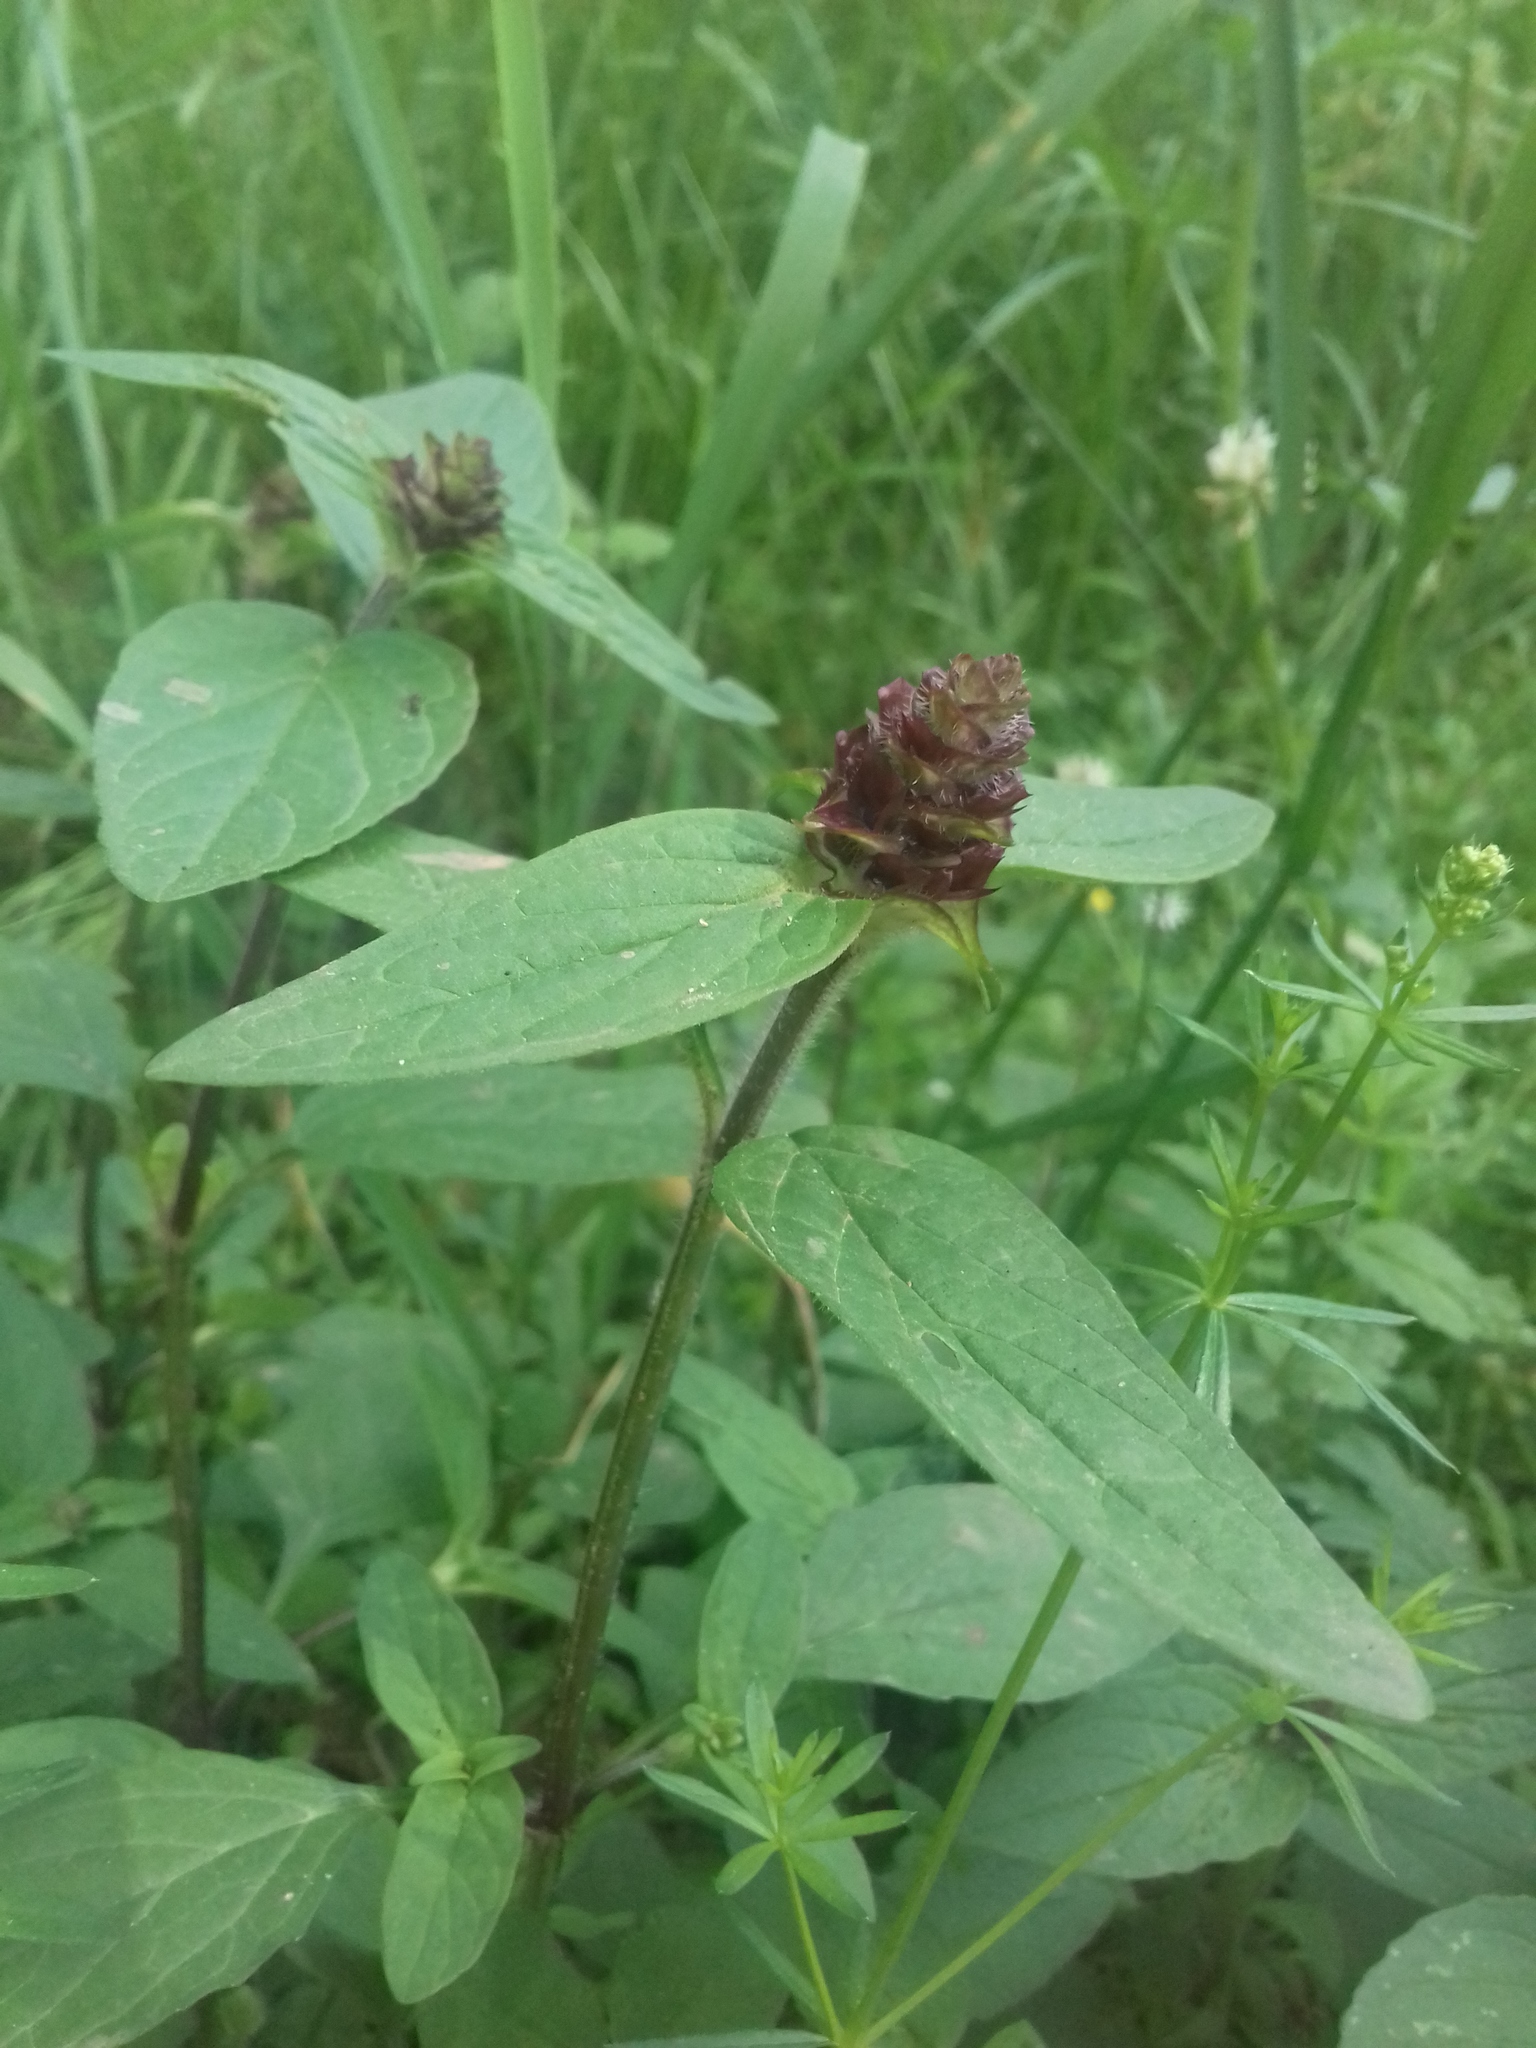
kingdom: Plantae
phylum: Tracheophyta
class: Magnoliopsida
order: Lamiales
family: Lamiaceae
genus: Prunella
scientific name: Prunella vulgaris
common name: Heal-all
